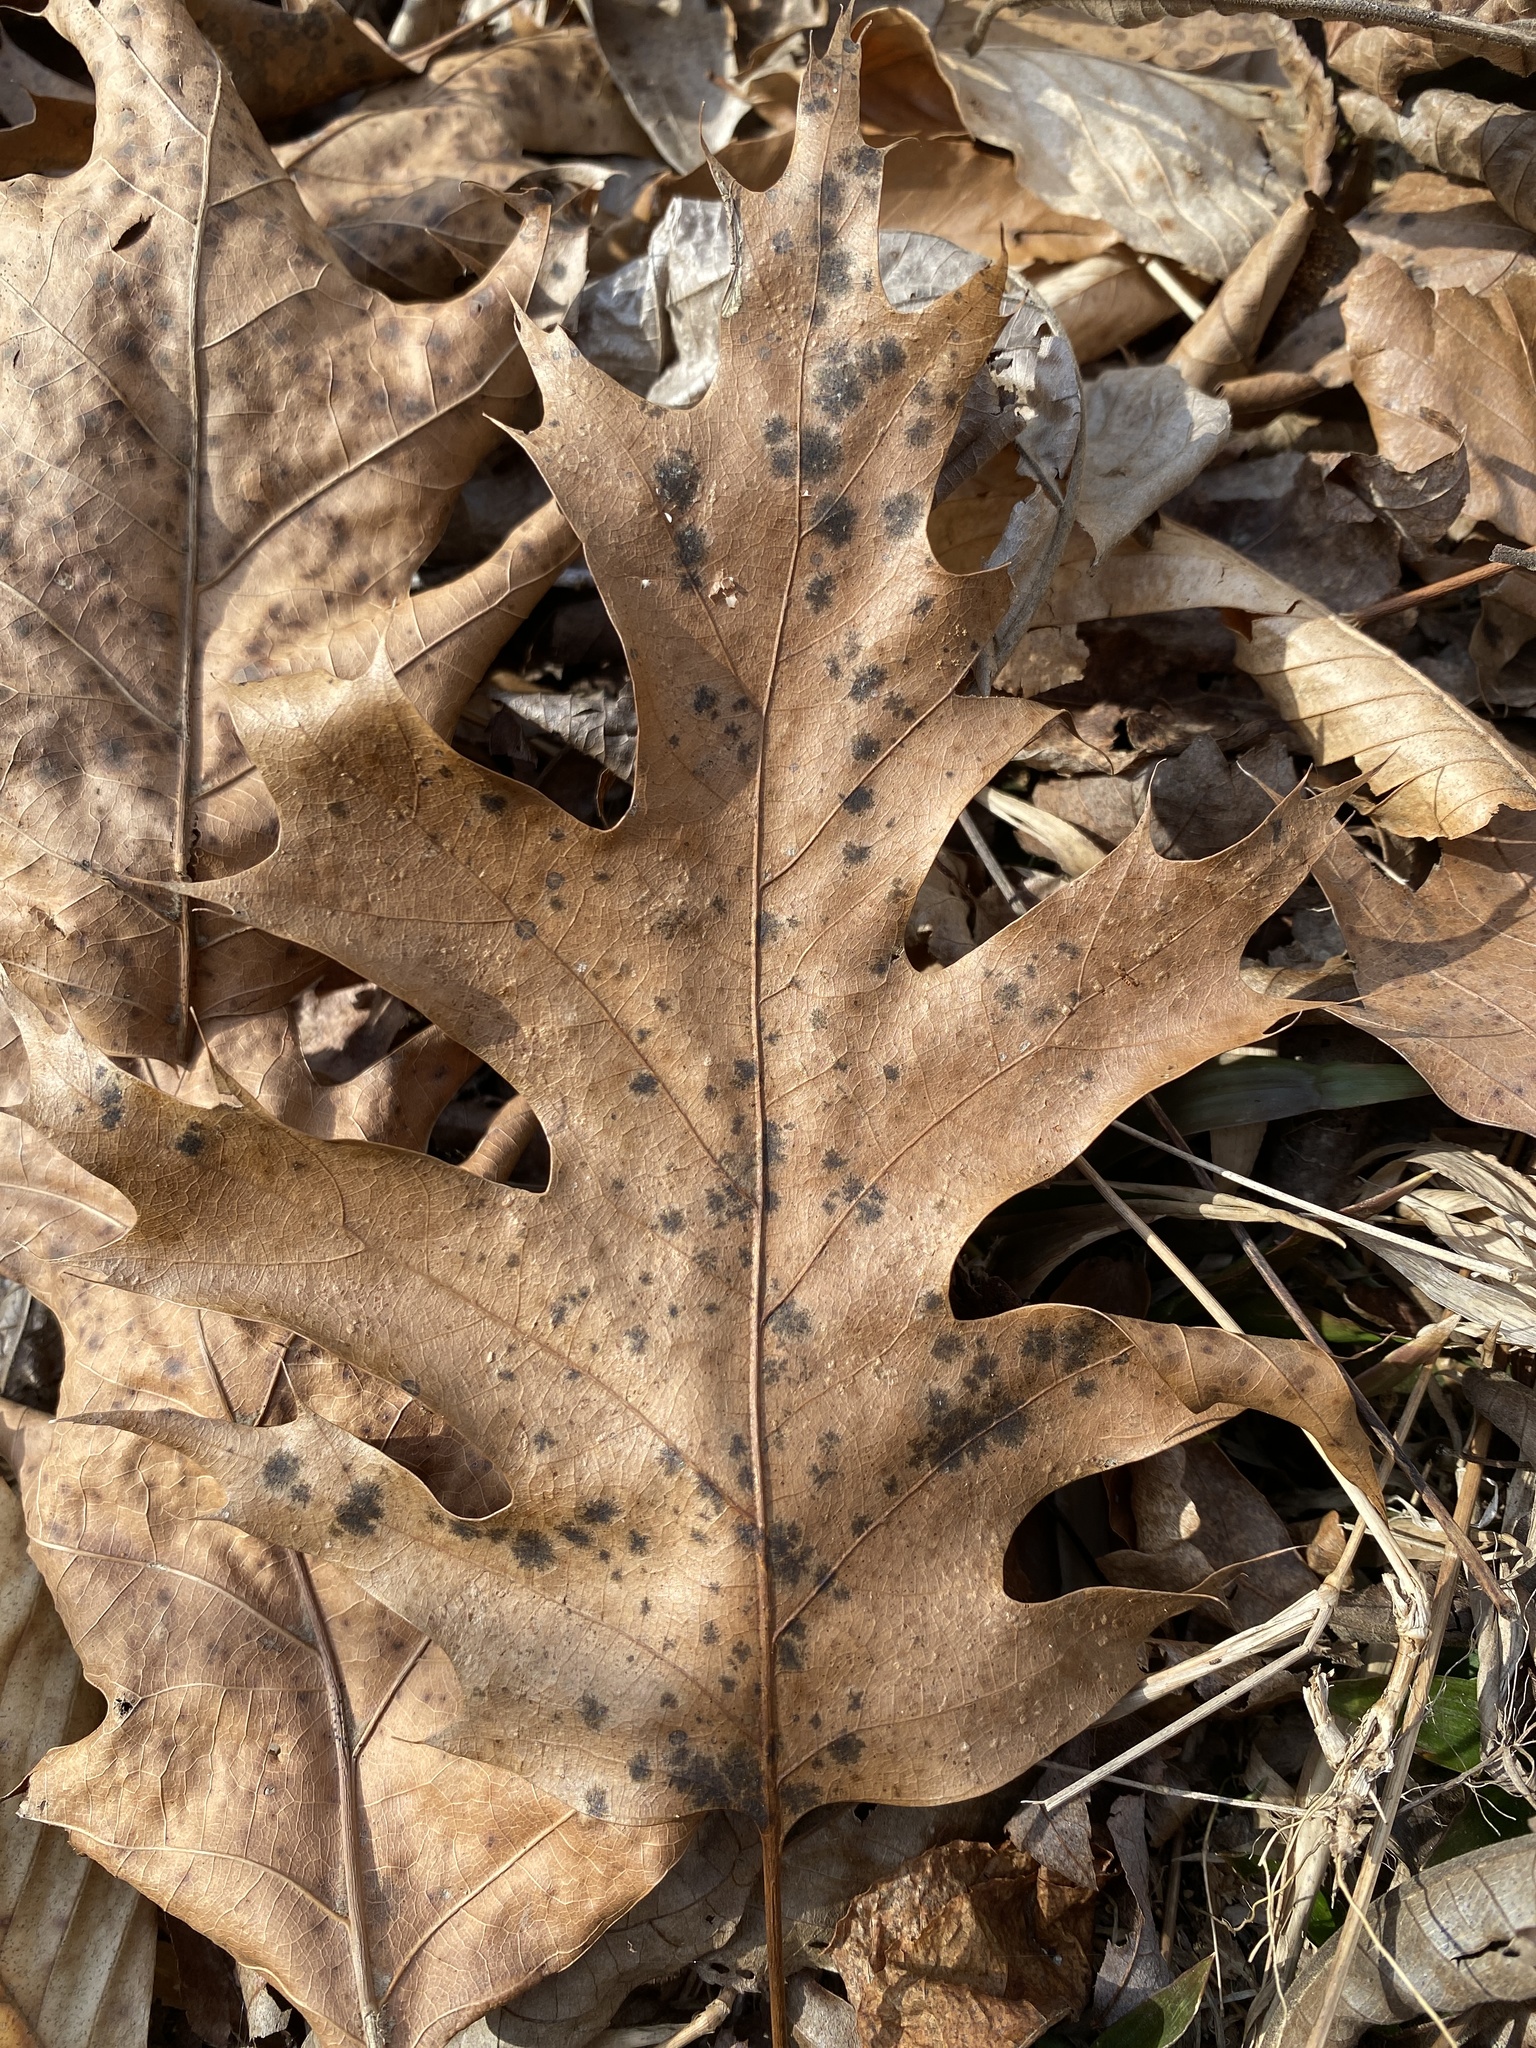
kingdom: Plantae
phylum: Tracheophyta
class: Magnoliopsida
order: Fagales
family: Fagaceae
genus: Quercus
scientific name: Quercus rubra
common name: Red oak
